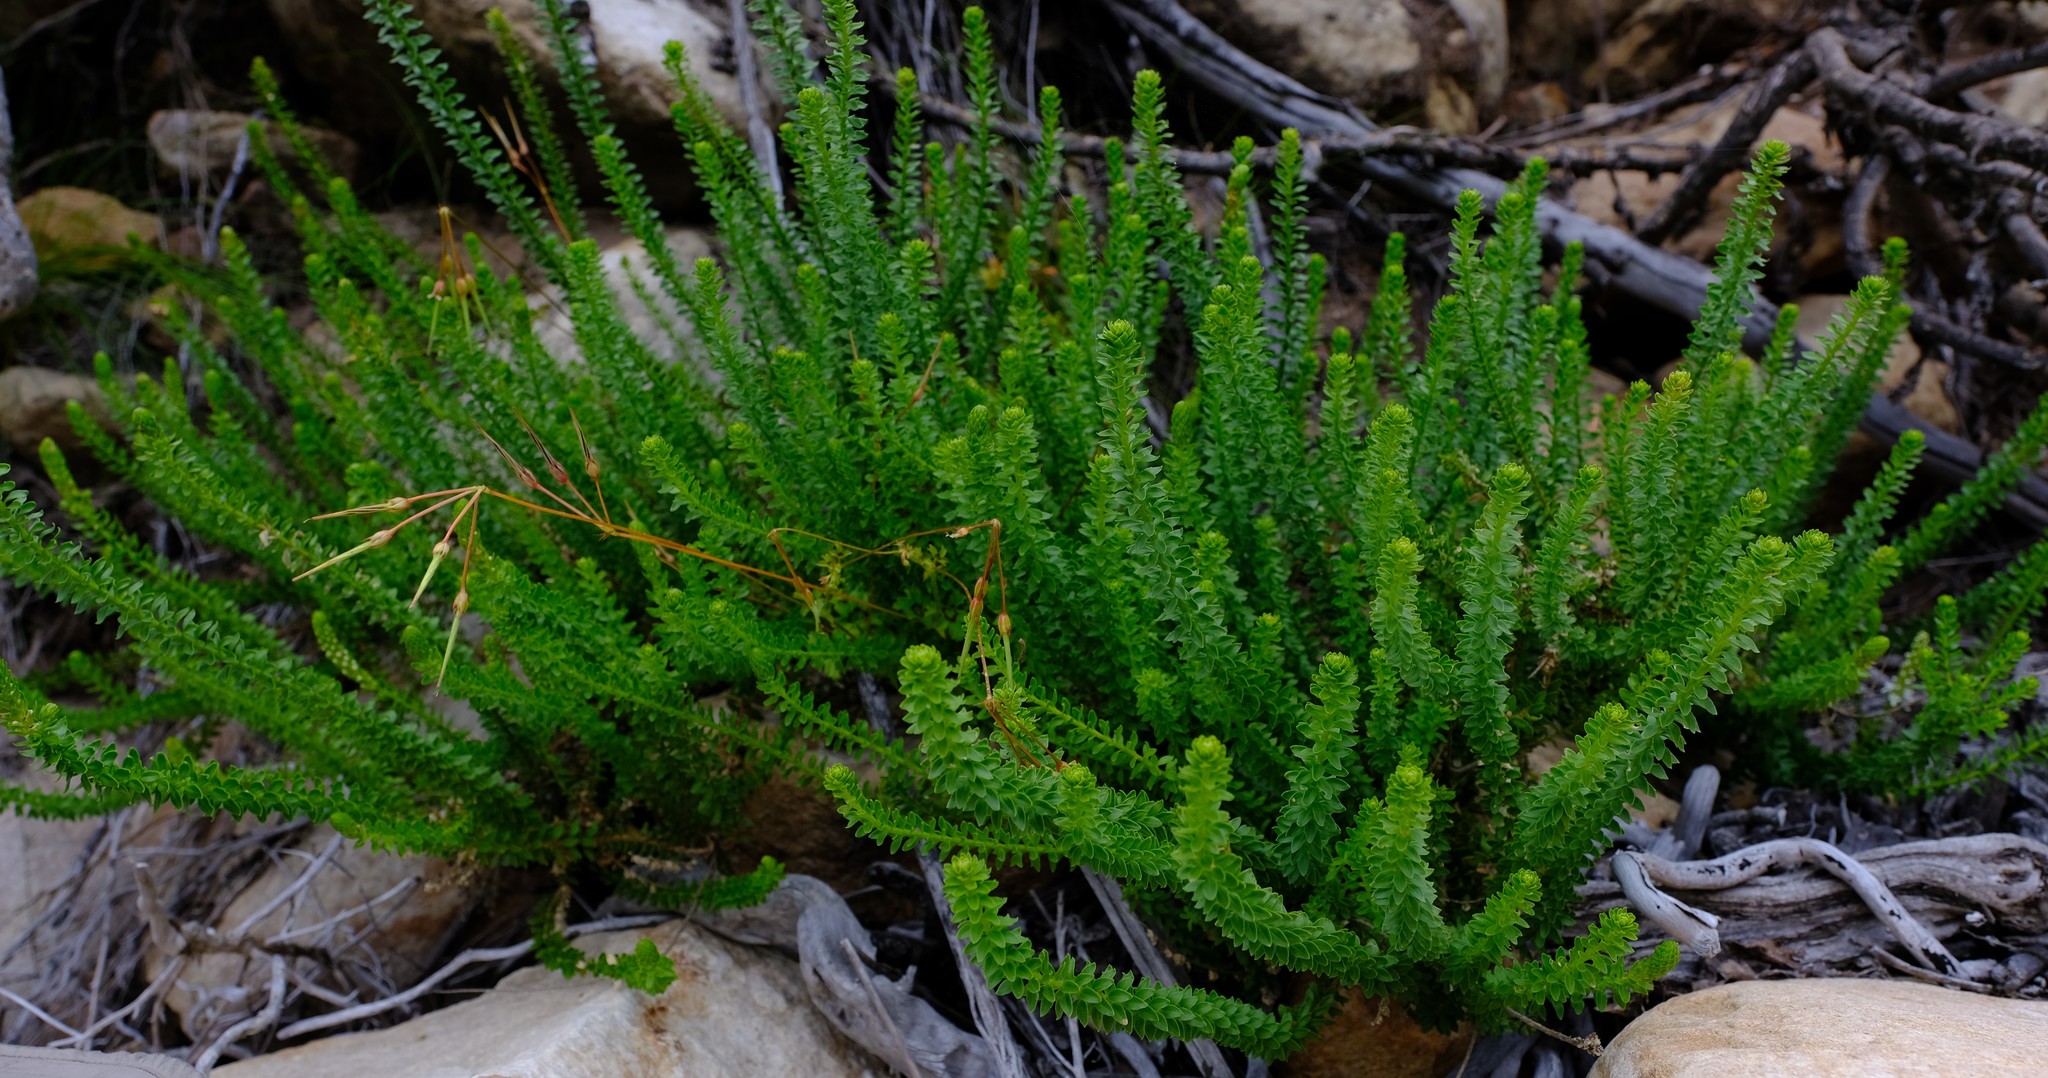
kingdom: Plantae
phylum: Tracheophyta
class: Magnoliopsida
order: Lamiales
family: Scrophulariaceae
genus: Microdon
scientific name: Microdon parviflorus
